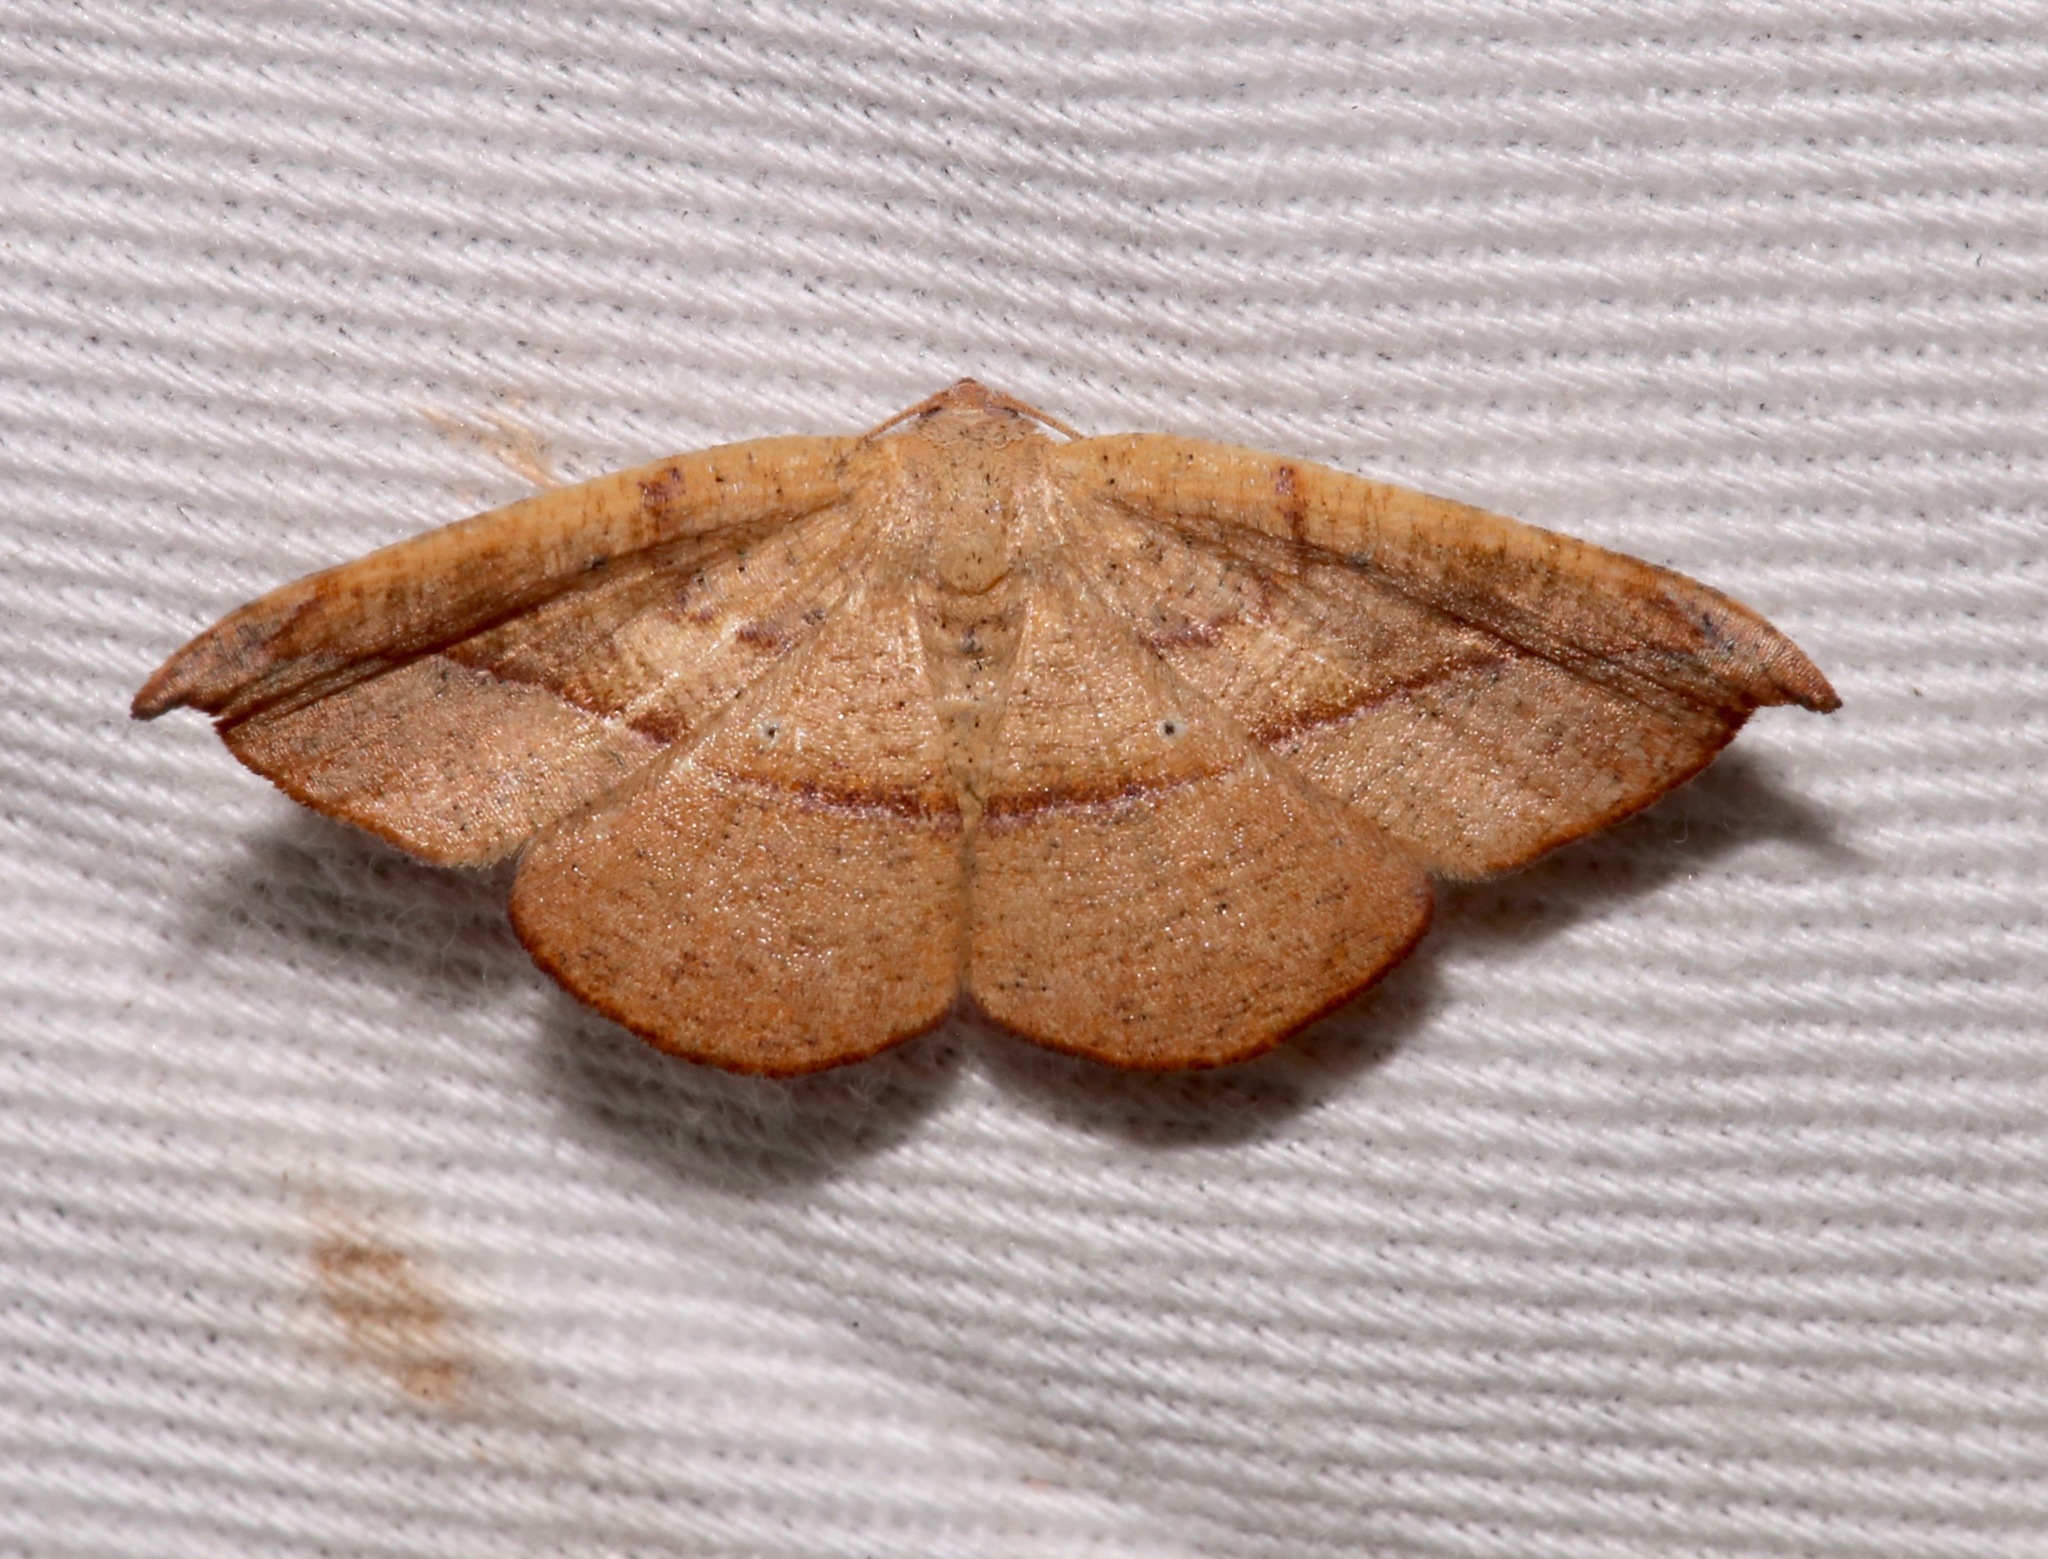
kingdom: Animalia
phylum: Arthropoda
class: Insecta
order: Lepidoptera
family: Geometridae
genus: Patalene
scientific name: Patalene olyzonaria
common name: Juniper geometer moth
